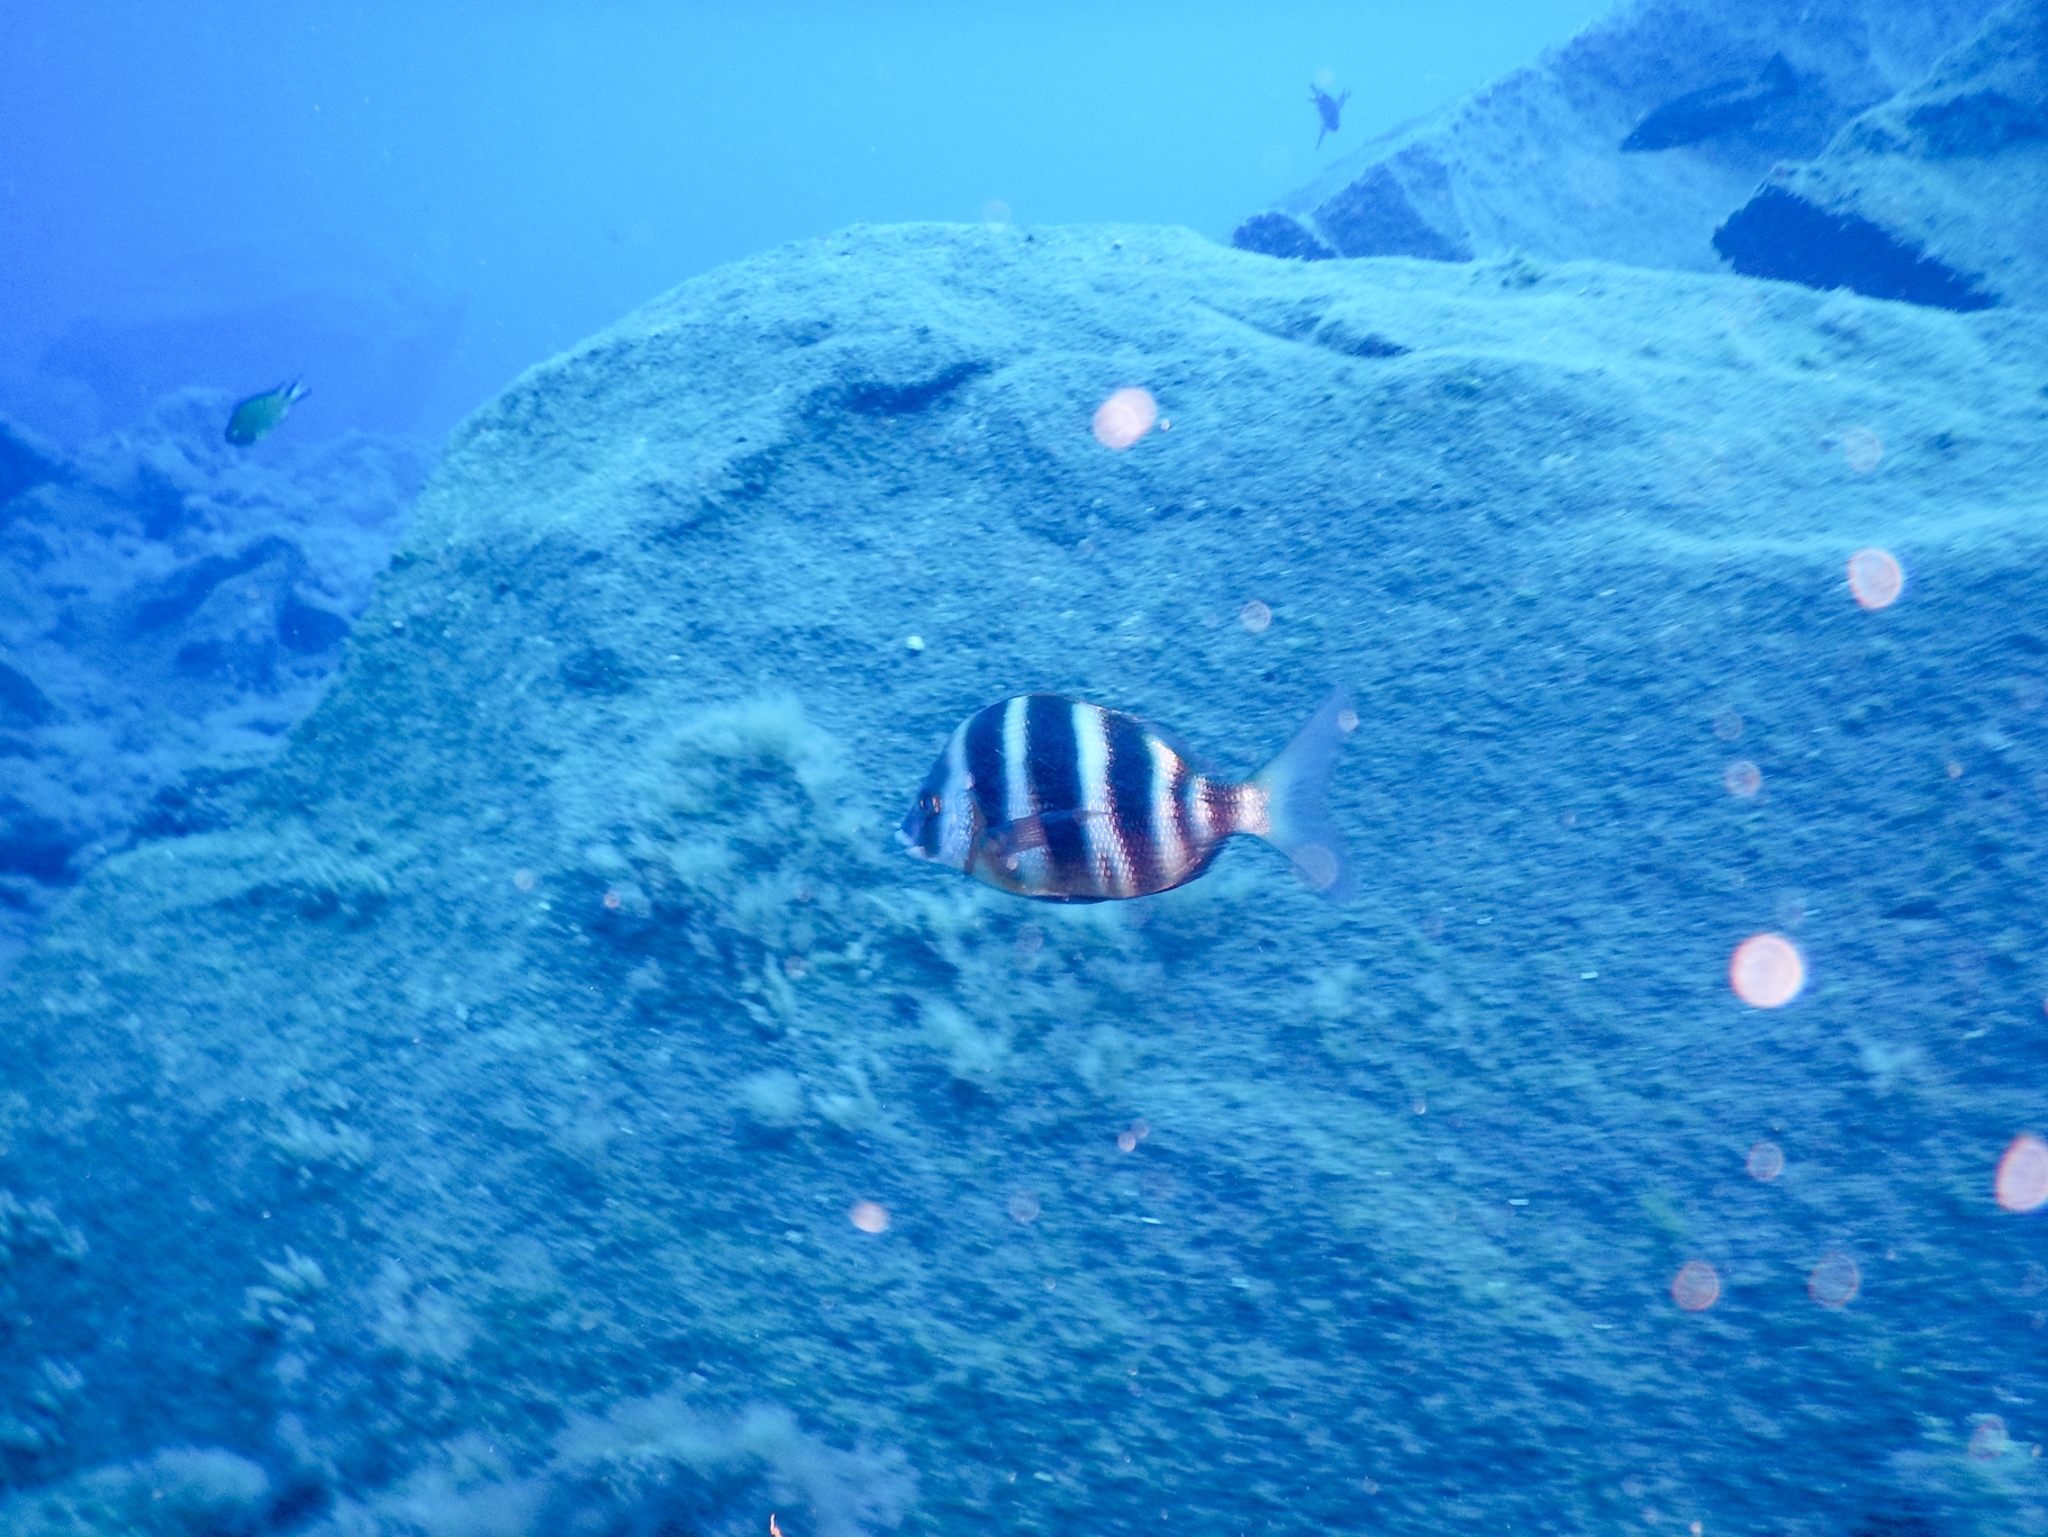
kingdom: Animalia
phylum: Chordata
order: Perciformes
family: Sparidae
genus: Diplodus
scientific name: Diplodus cervinus
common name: Oman porgy
